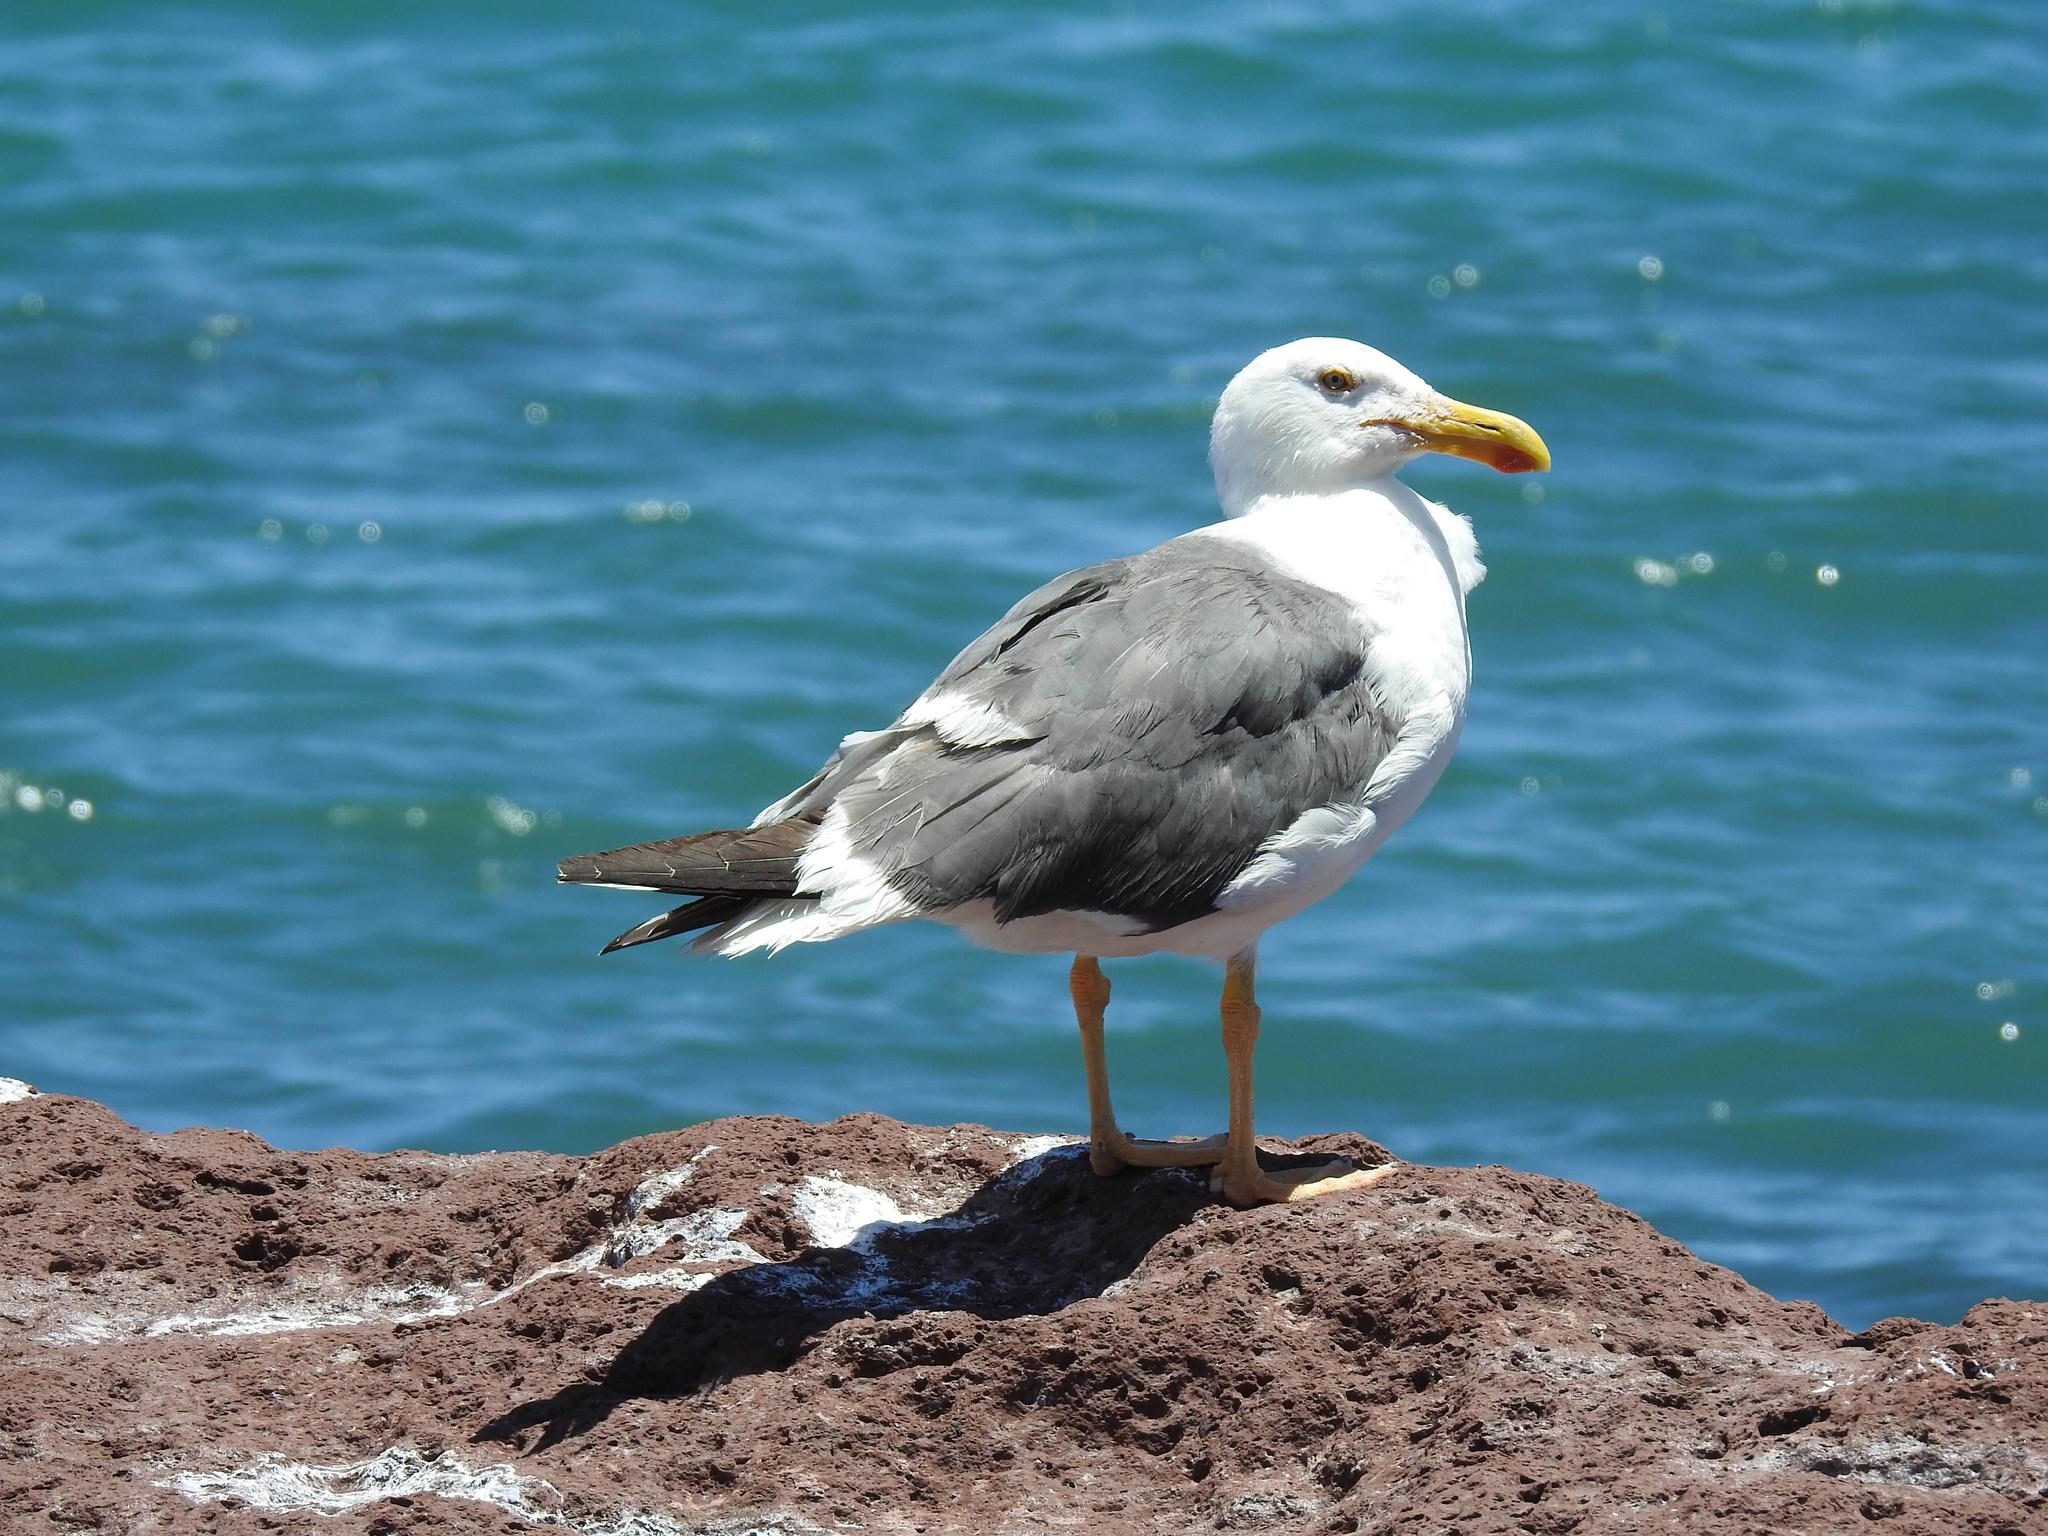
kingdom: Animalia
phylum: Chordata
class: Aves
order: Charadriiformes
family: Laridae
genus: Larus
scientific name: Larus livens
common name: Yellow-footed gull
